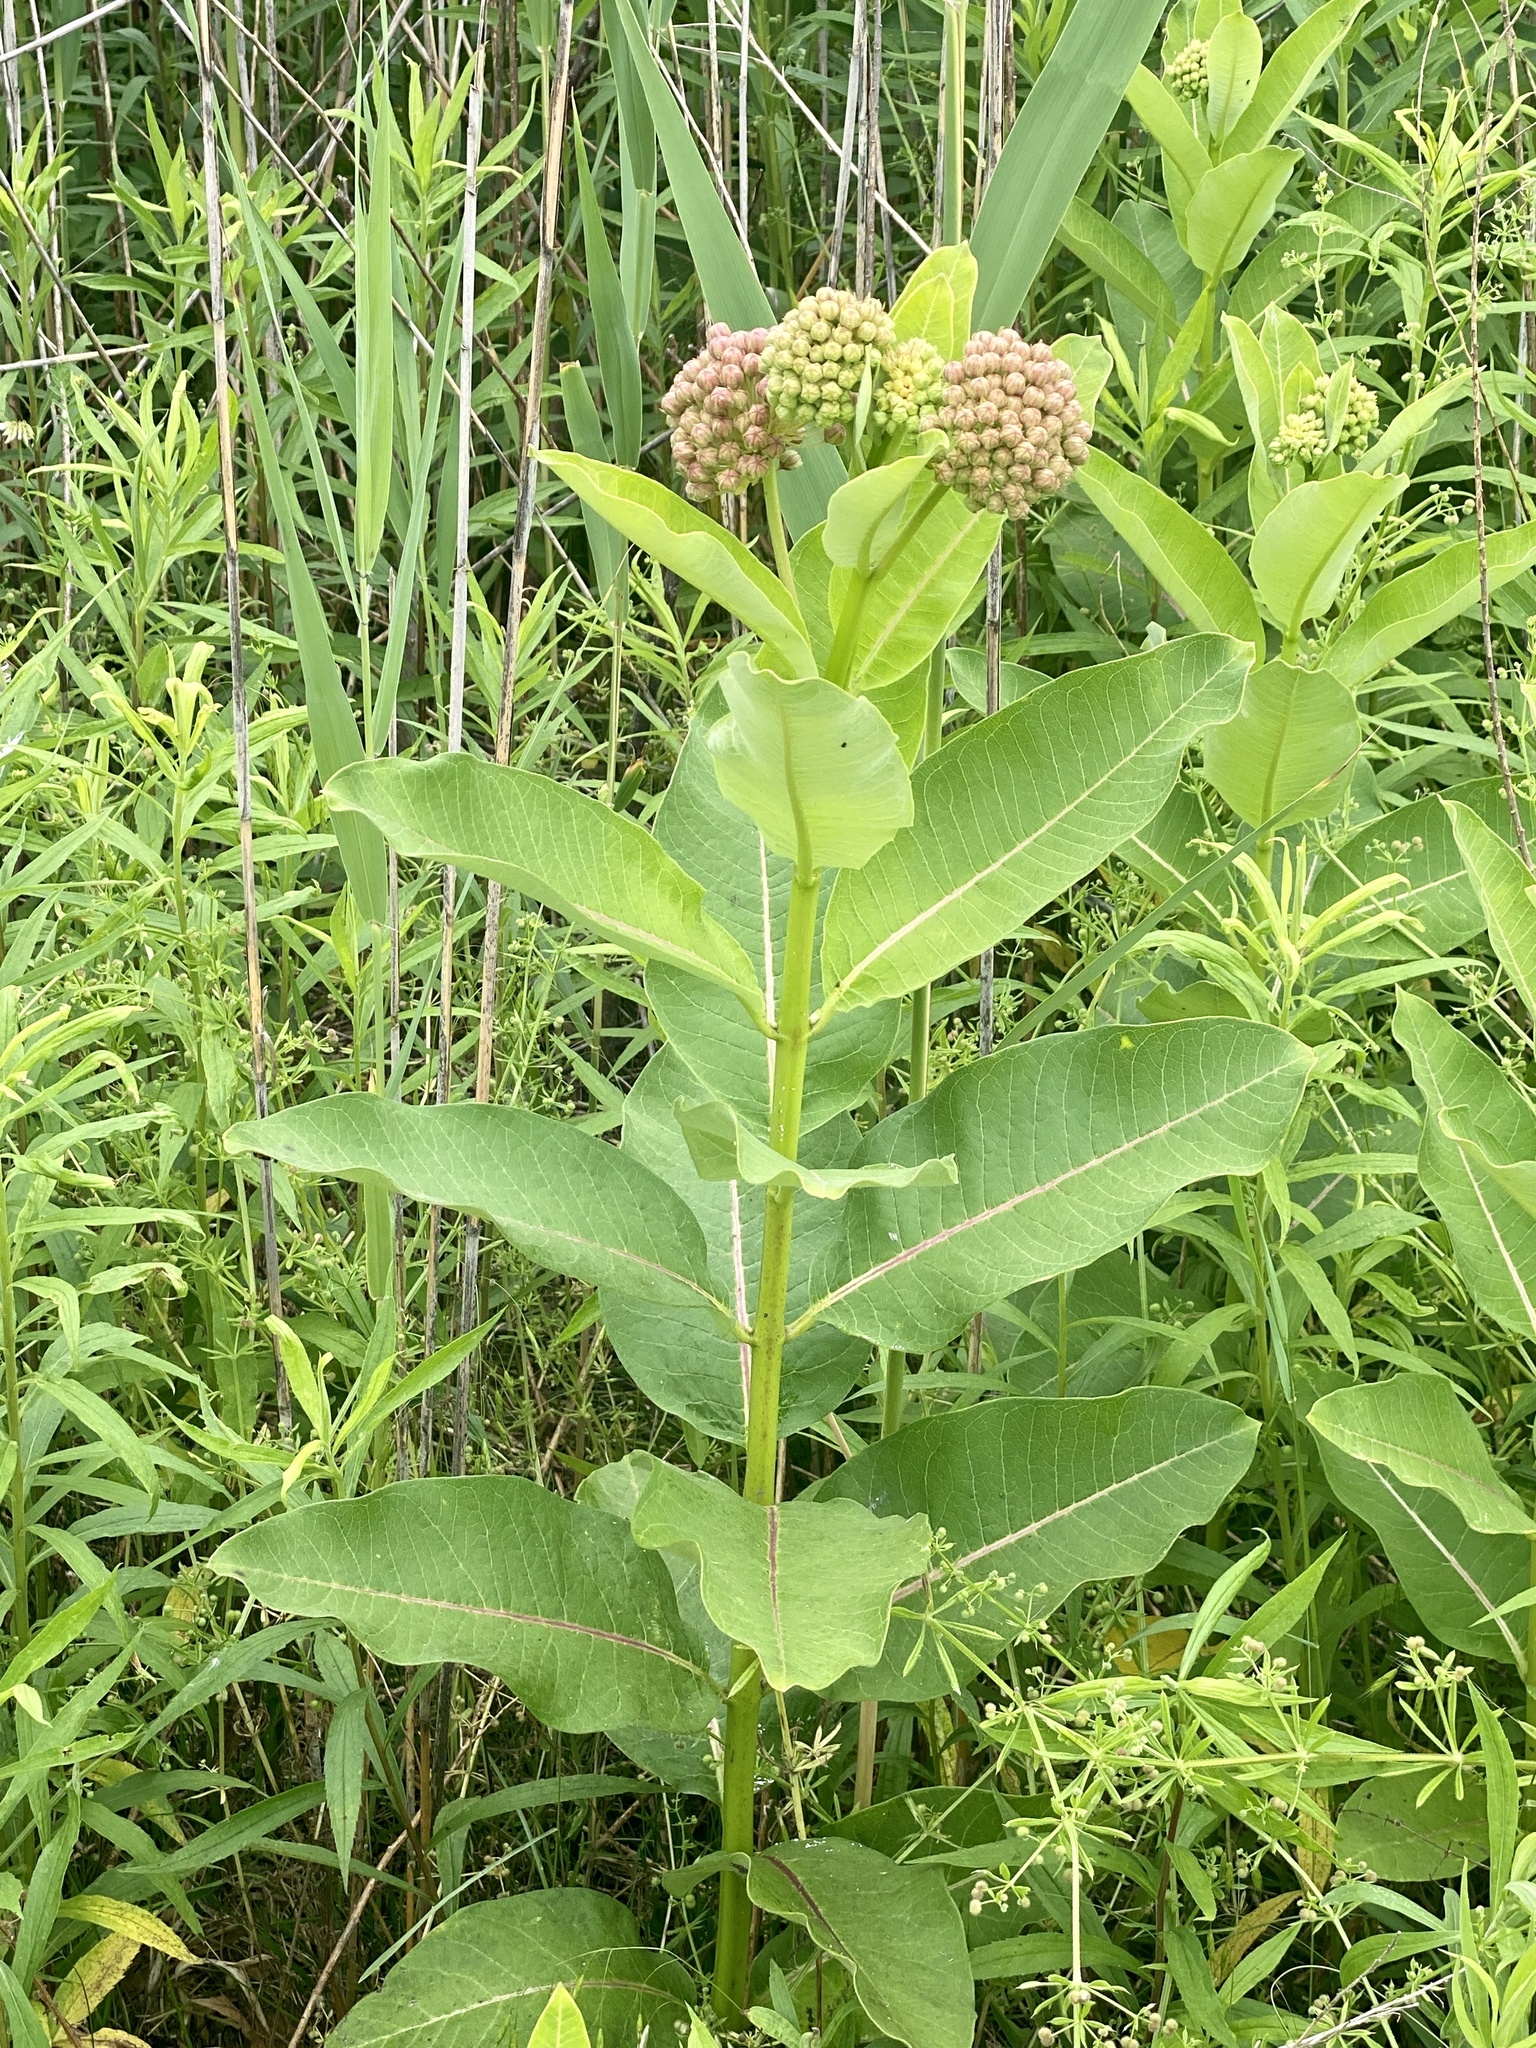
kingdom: Plantae
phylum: Tracheophyta
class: Magnoliopsida
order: Gentianales
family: Apocynaceae
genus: Asclepias
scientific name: Asclepias syriaca
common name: Common milkweed
